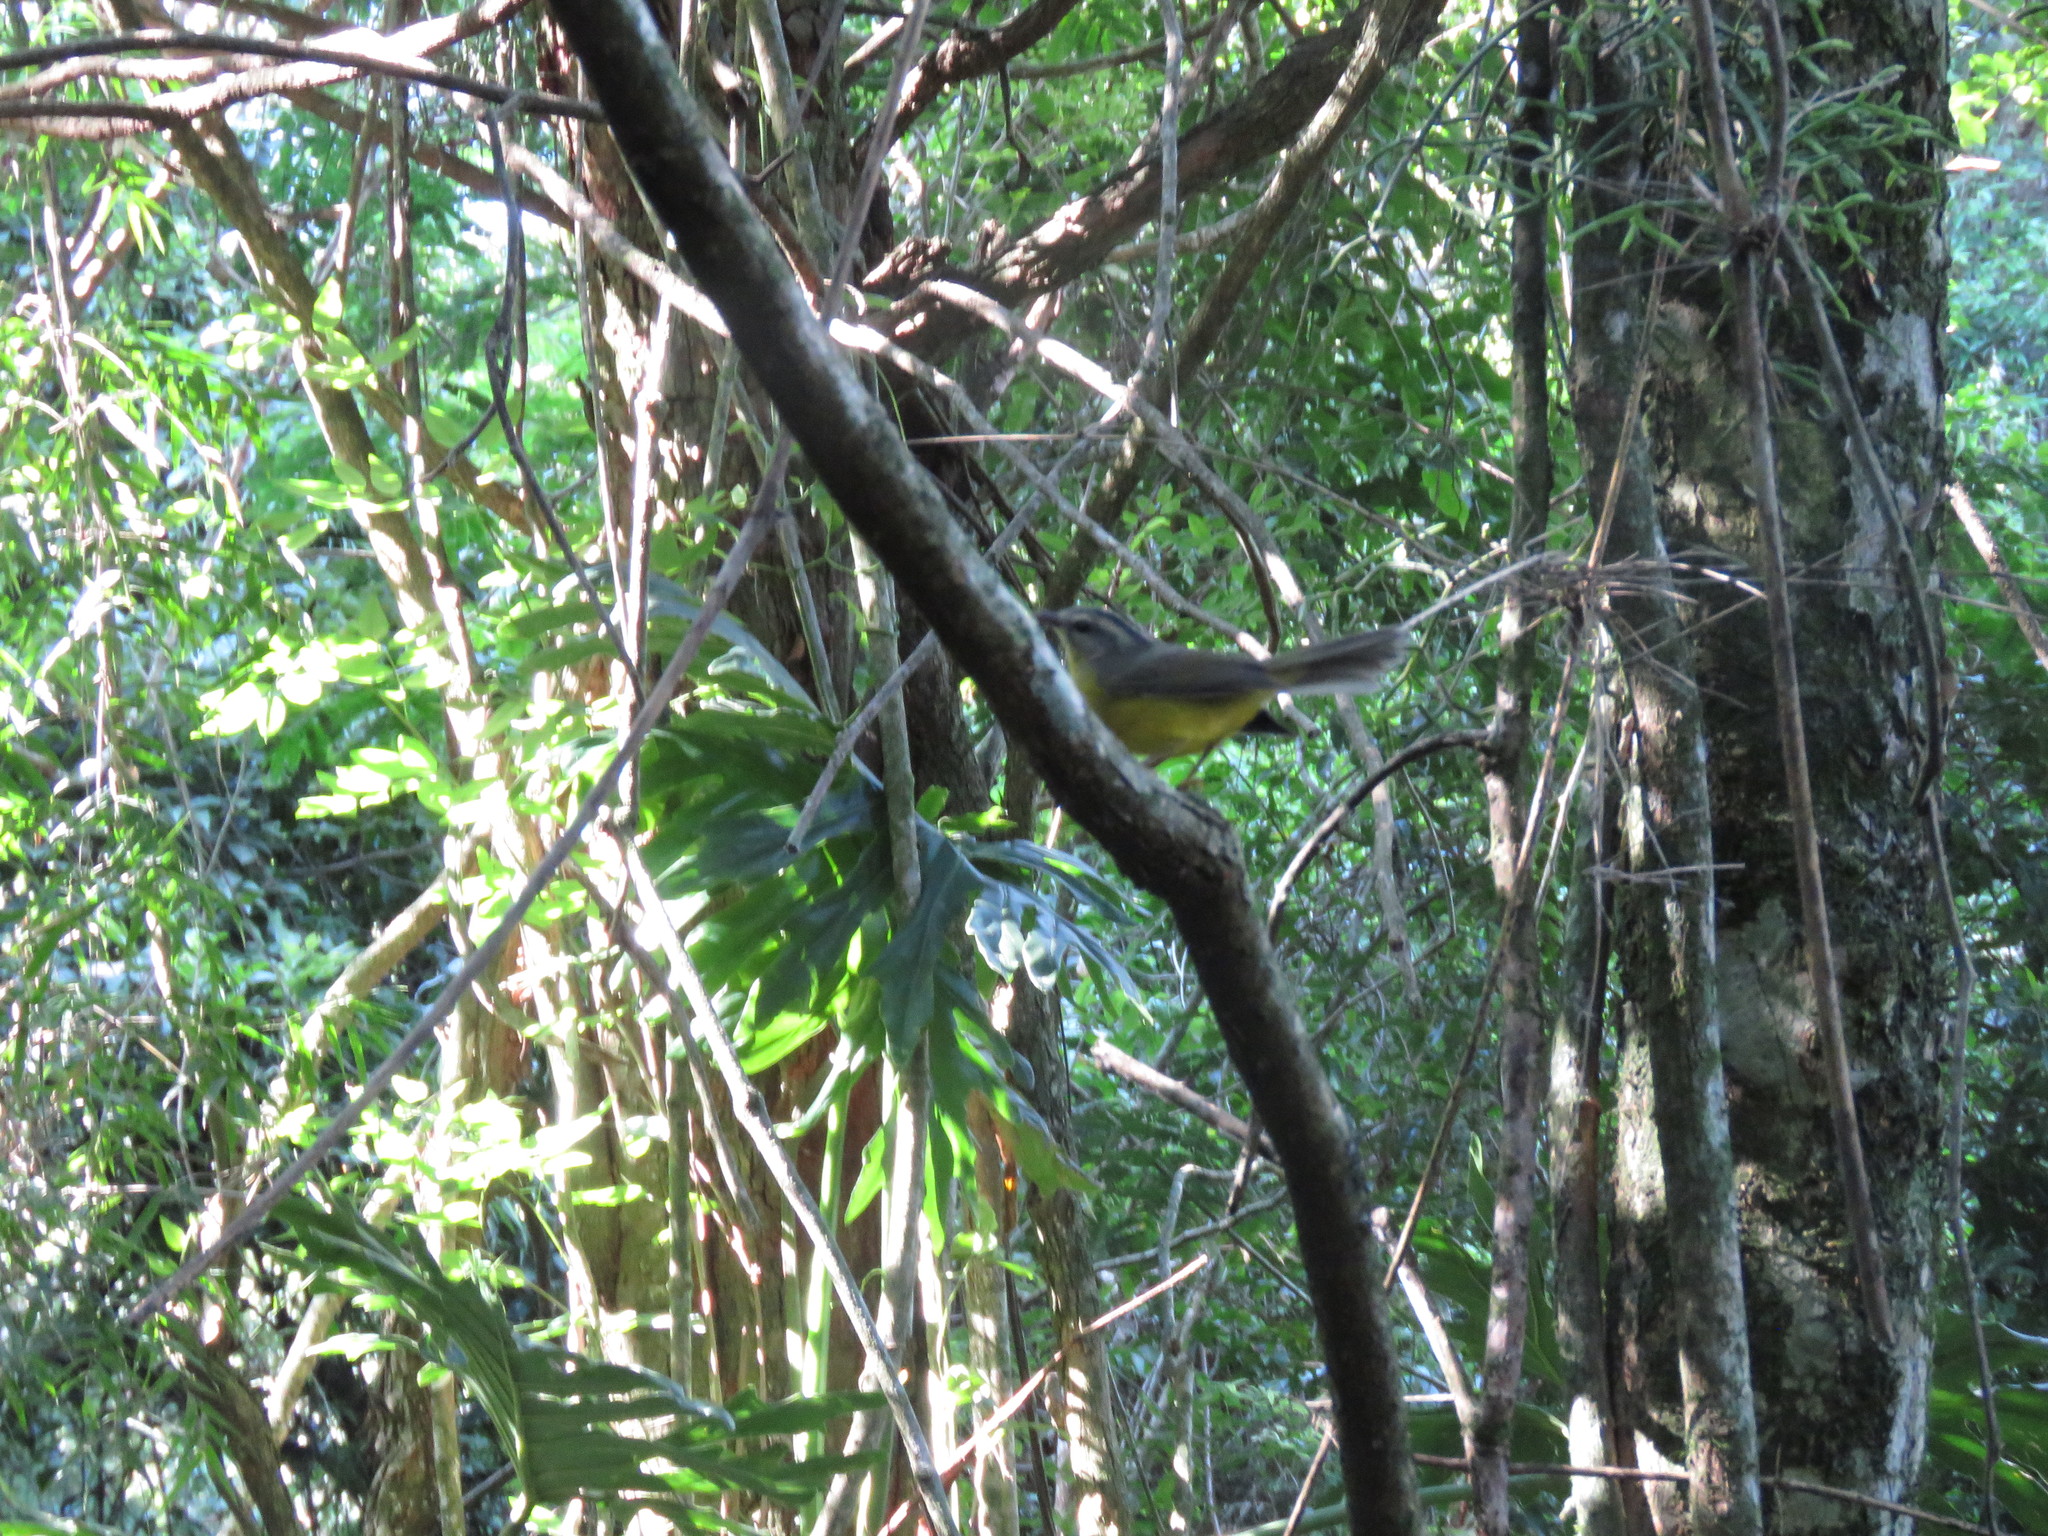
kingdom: Animalia
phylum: Chordata
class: Aves
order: Passeriformes
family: Parulidae
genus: Basileuterus
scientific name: Basileuterus culicivorus
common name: Golden-crowned warbler
